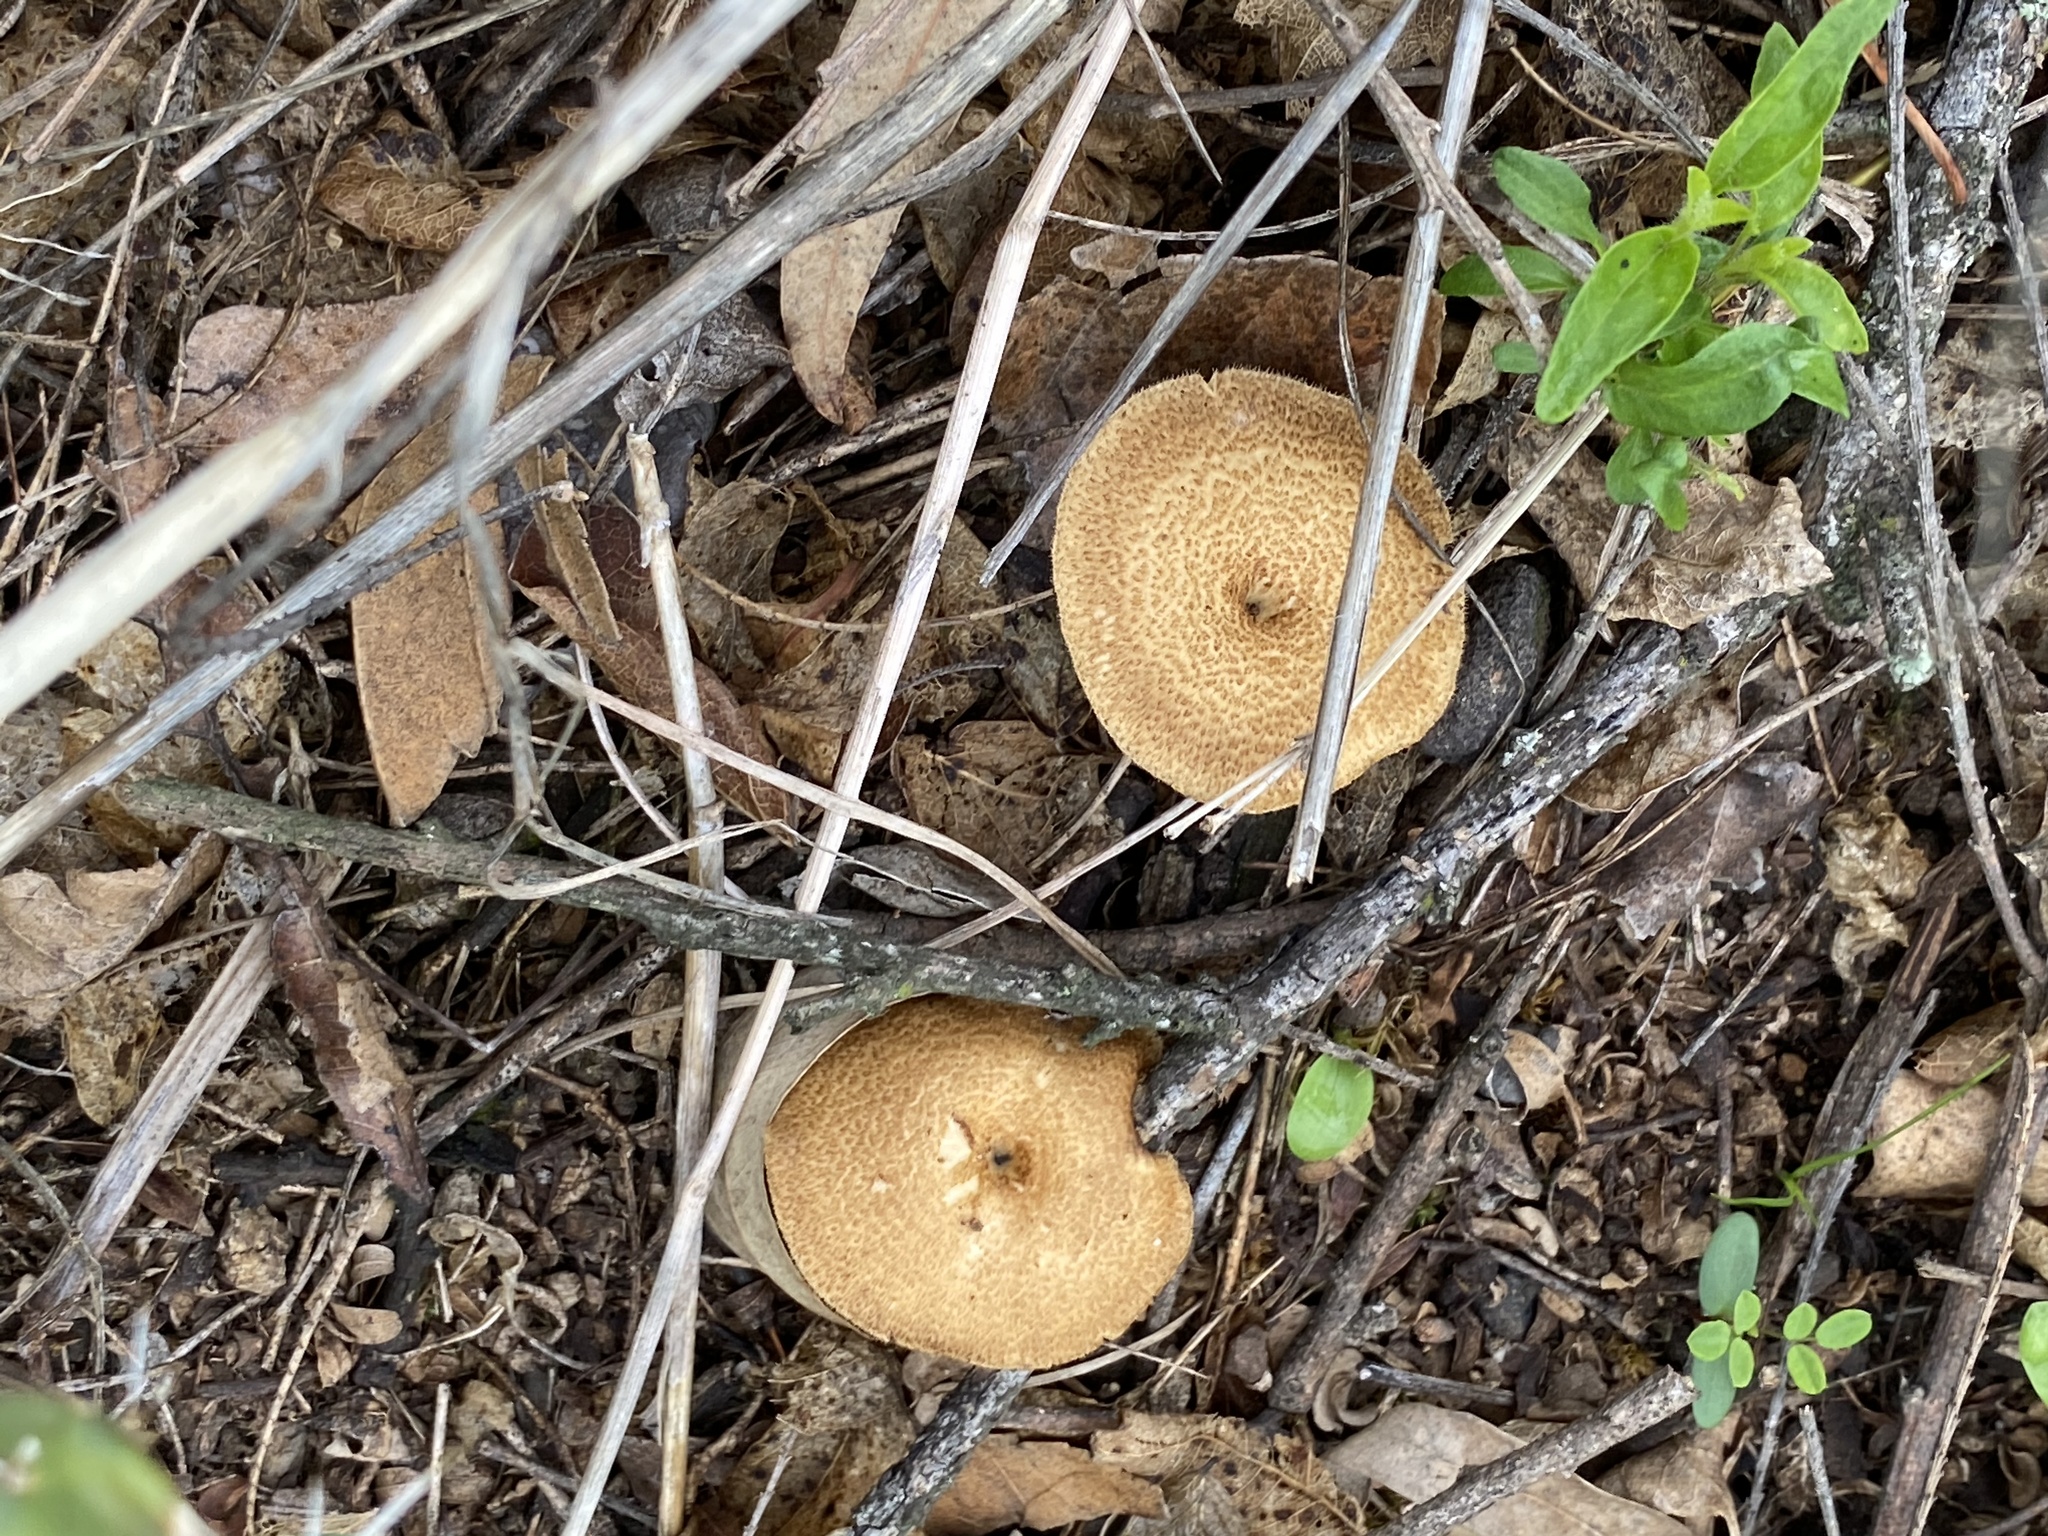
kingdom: Fungi
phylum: Basidiomycota
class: Agaricomycetes
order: Polyporales
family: Polyporaceae
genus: Lentinus
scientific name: Lentinus arcularius
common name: Spring polypore
